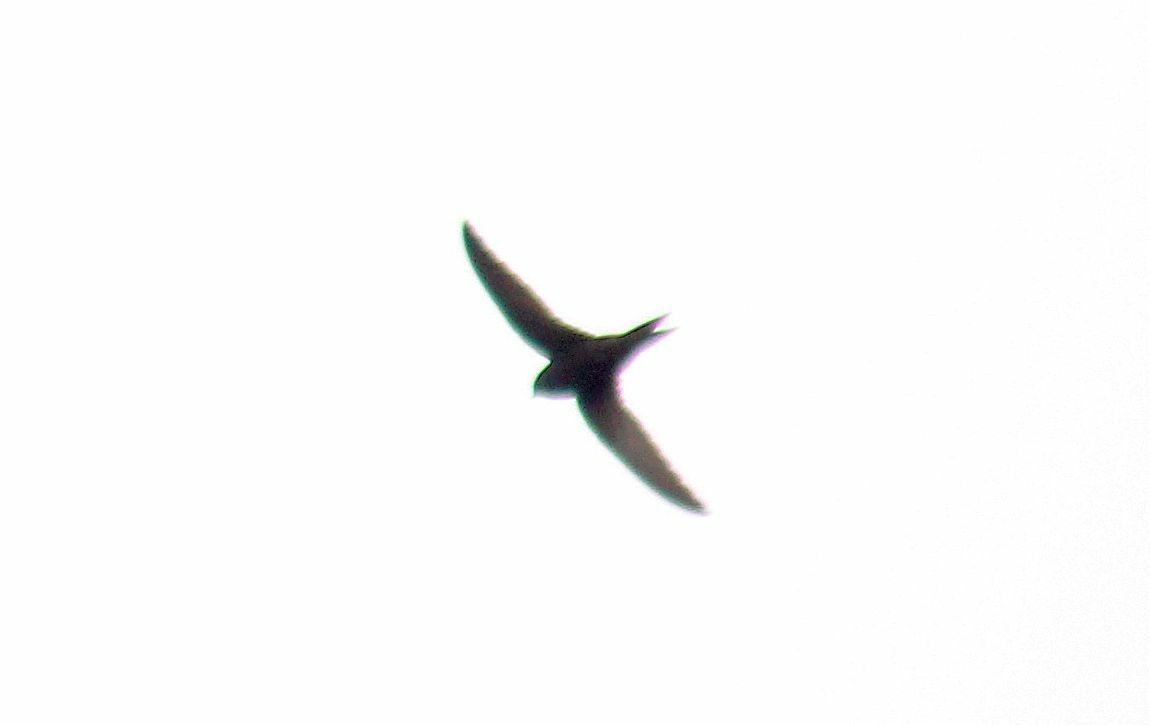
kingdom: Animalia
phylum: Chordata
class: Aves
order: Apodiformes
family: Apodidae
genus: Apus
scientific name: Apus apus
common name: Common swift
